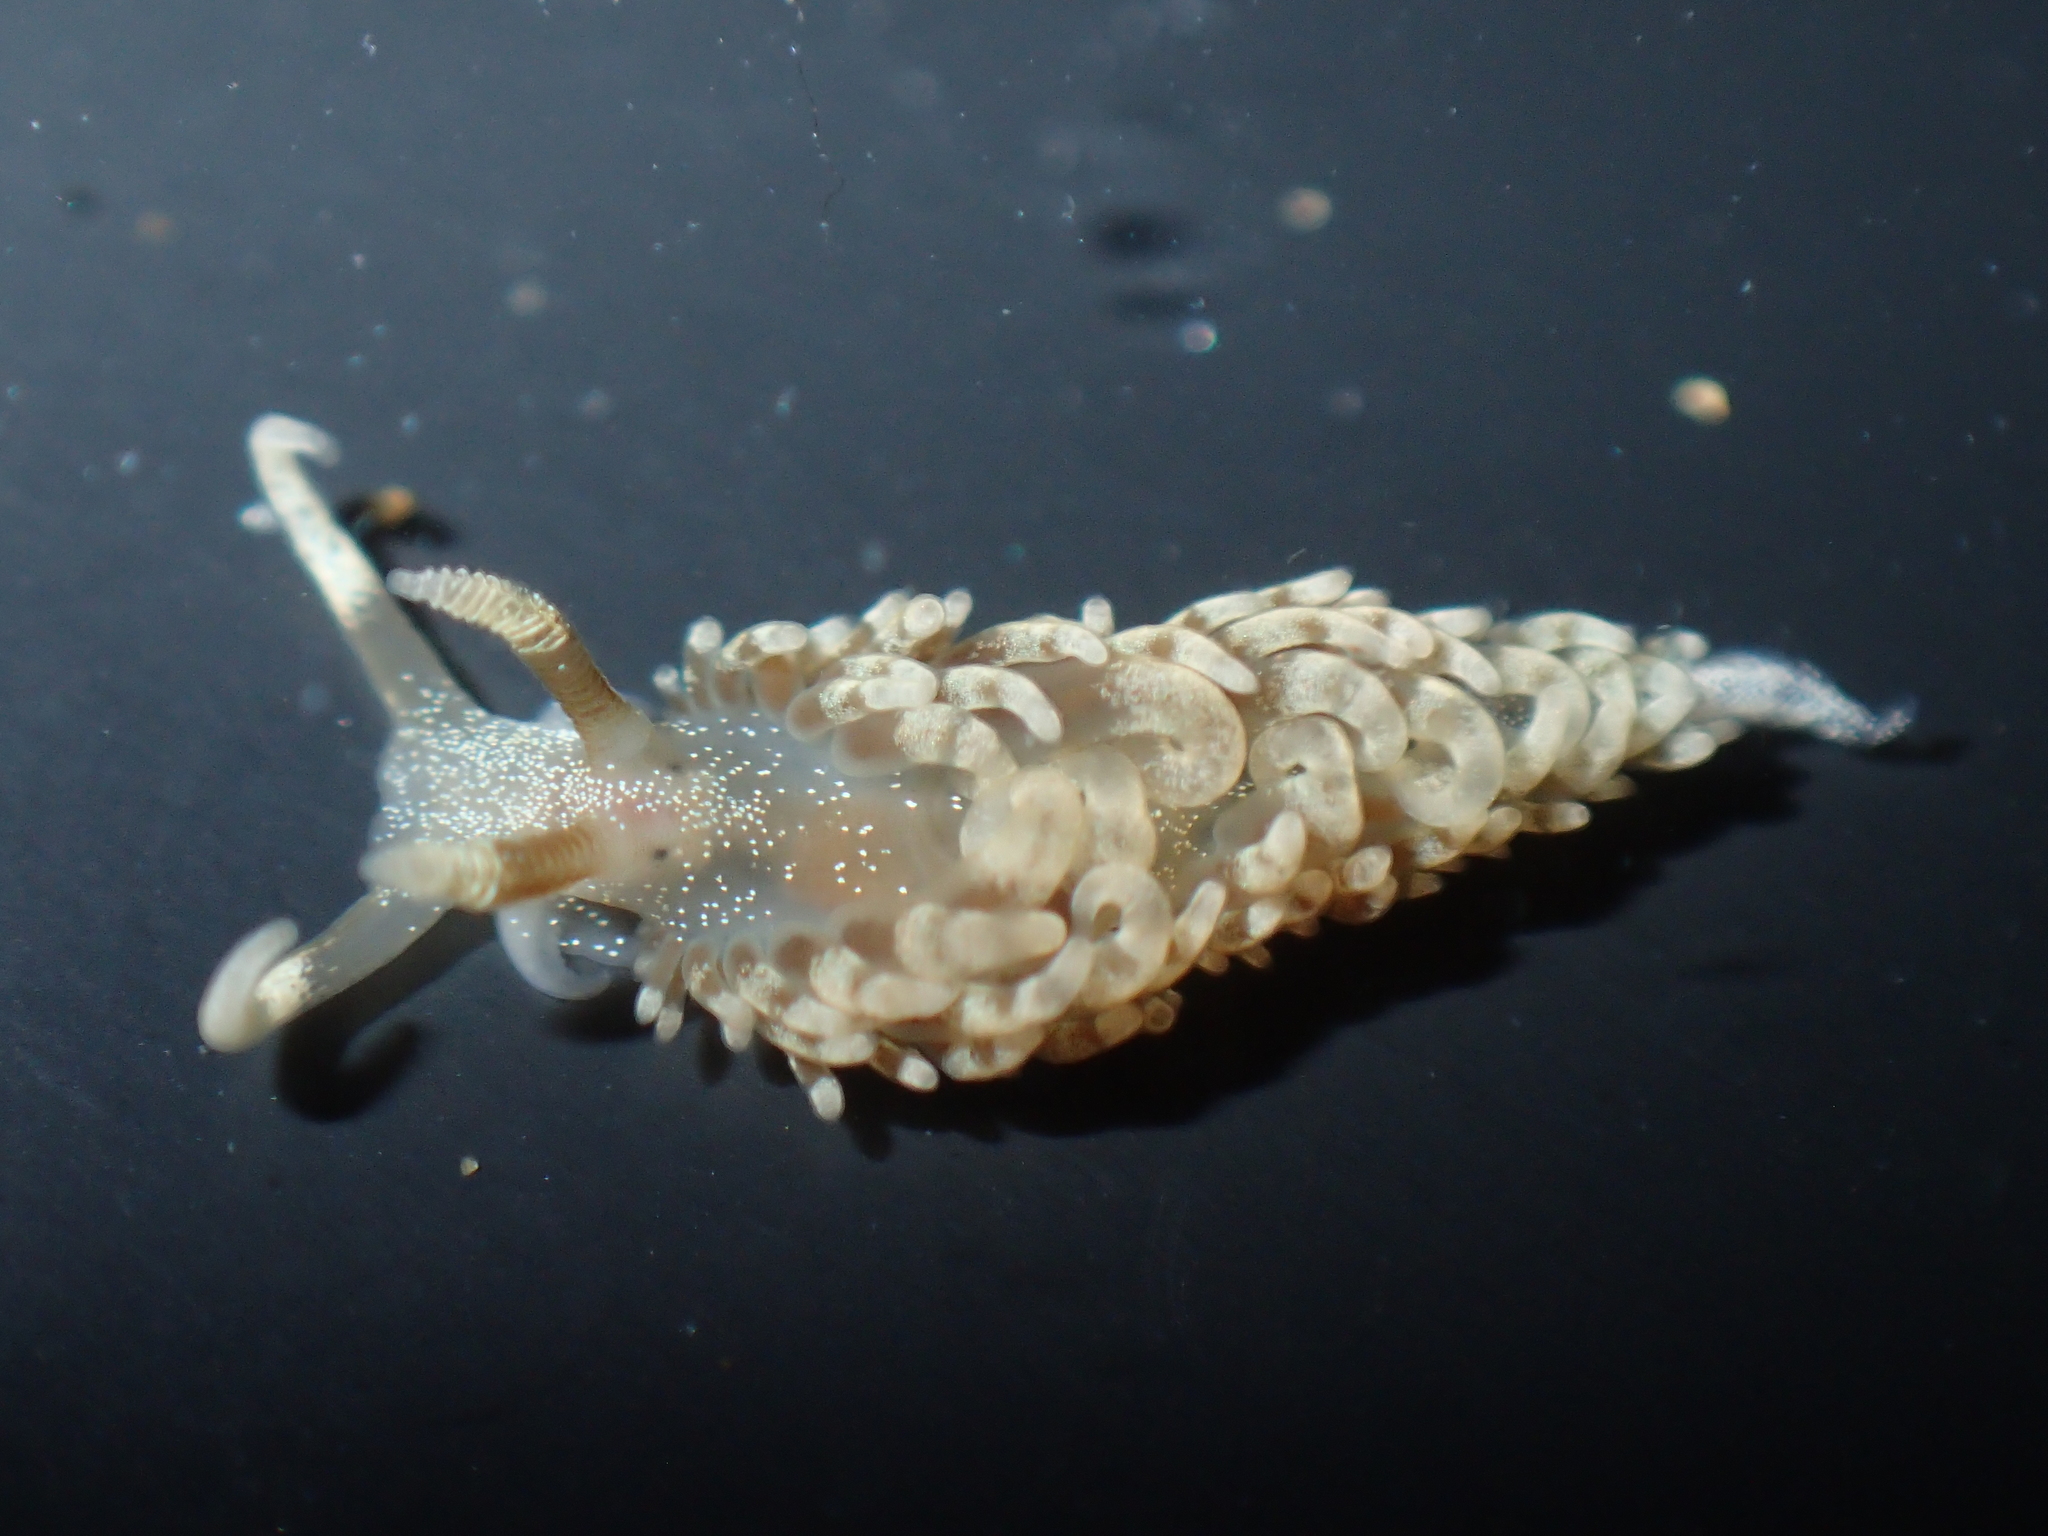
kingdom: Animalia
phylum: Mollusca
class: Gastropoda
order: Nudibranchia
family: Facelinidae
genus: Pruvotfolia
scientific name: Pruvotfolia pselliotes
